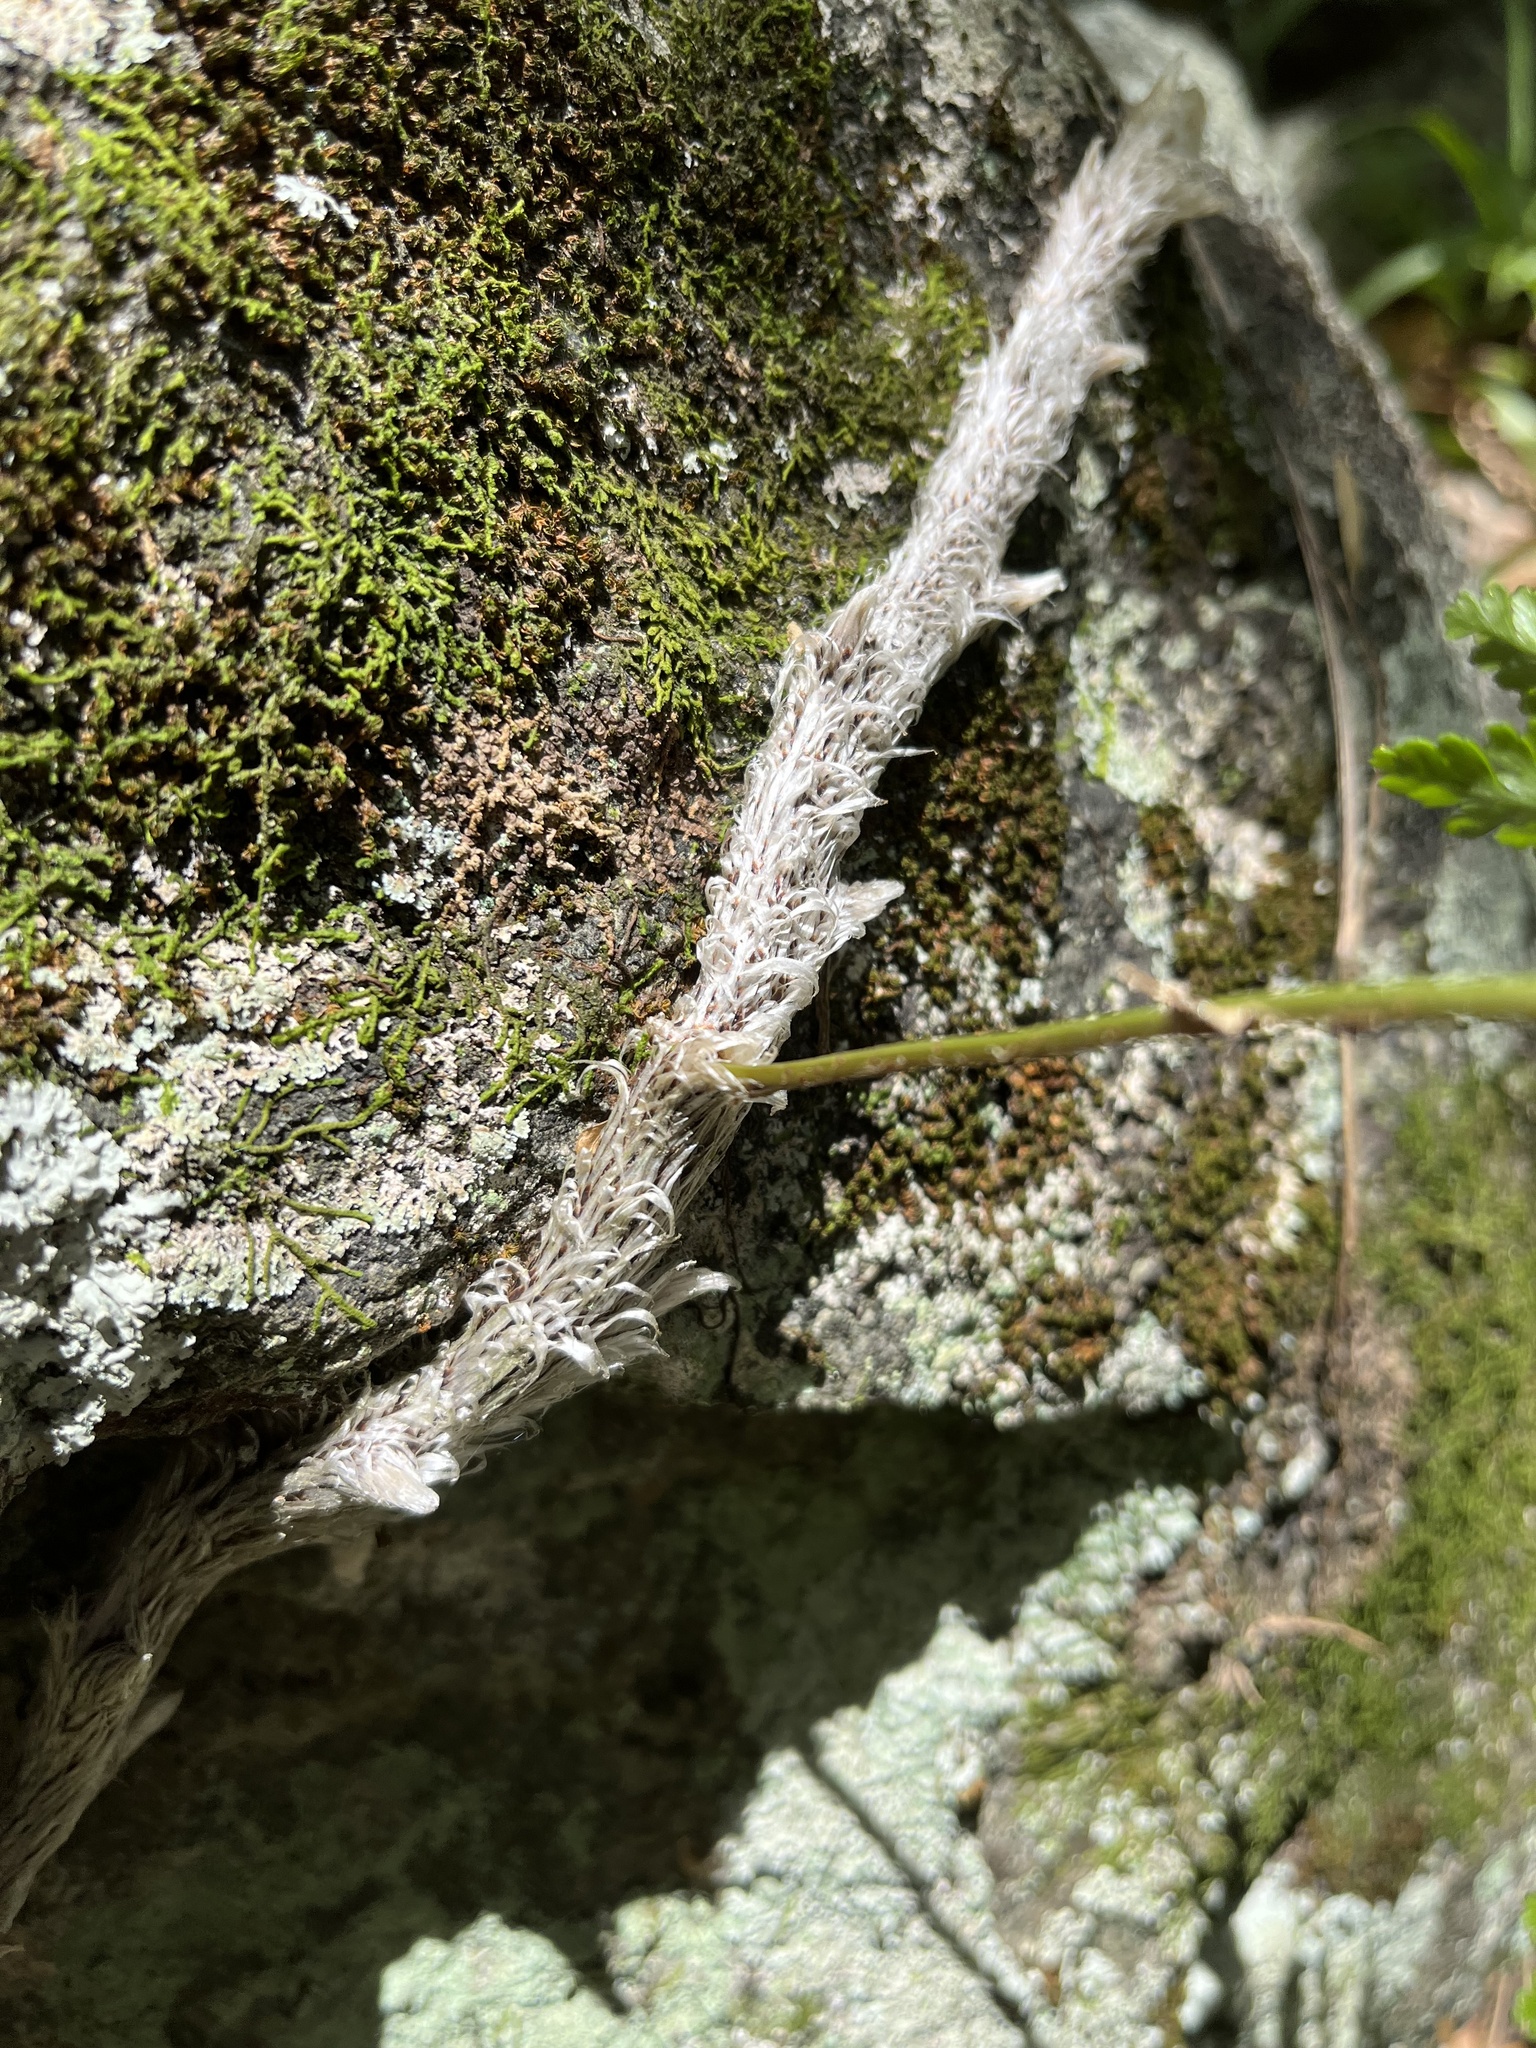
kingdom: Plantae
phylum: Tracheophyta
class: Polypodiopsida
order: Polypodiales
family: Davalliaceae
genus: Davallia
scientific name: Davallia griffithiana
